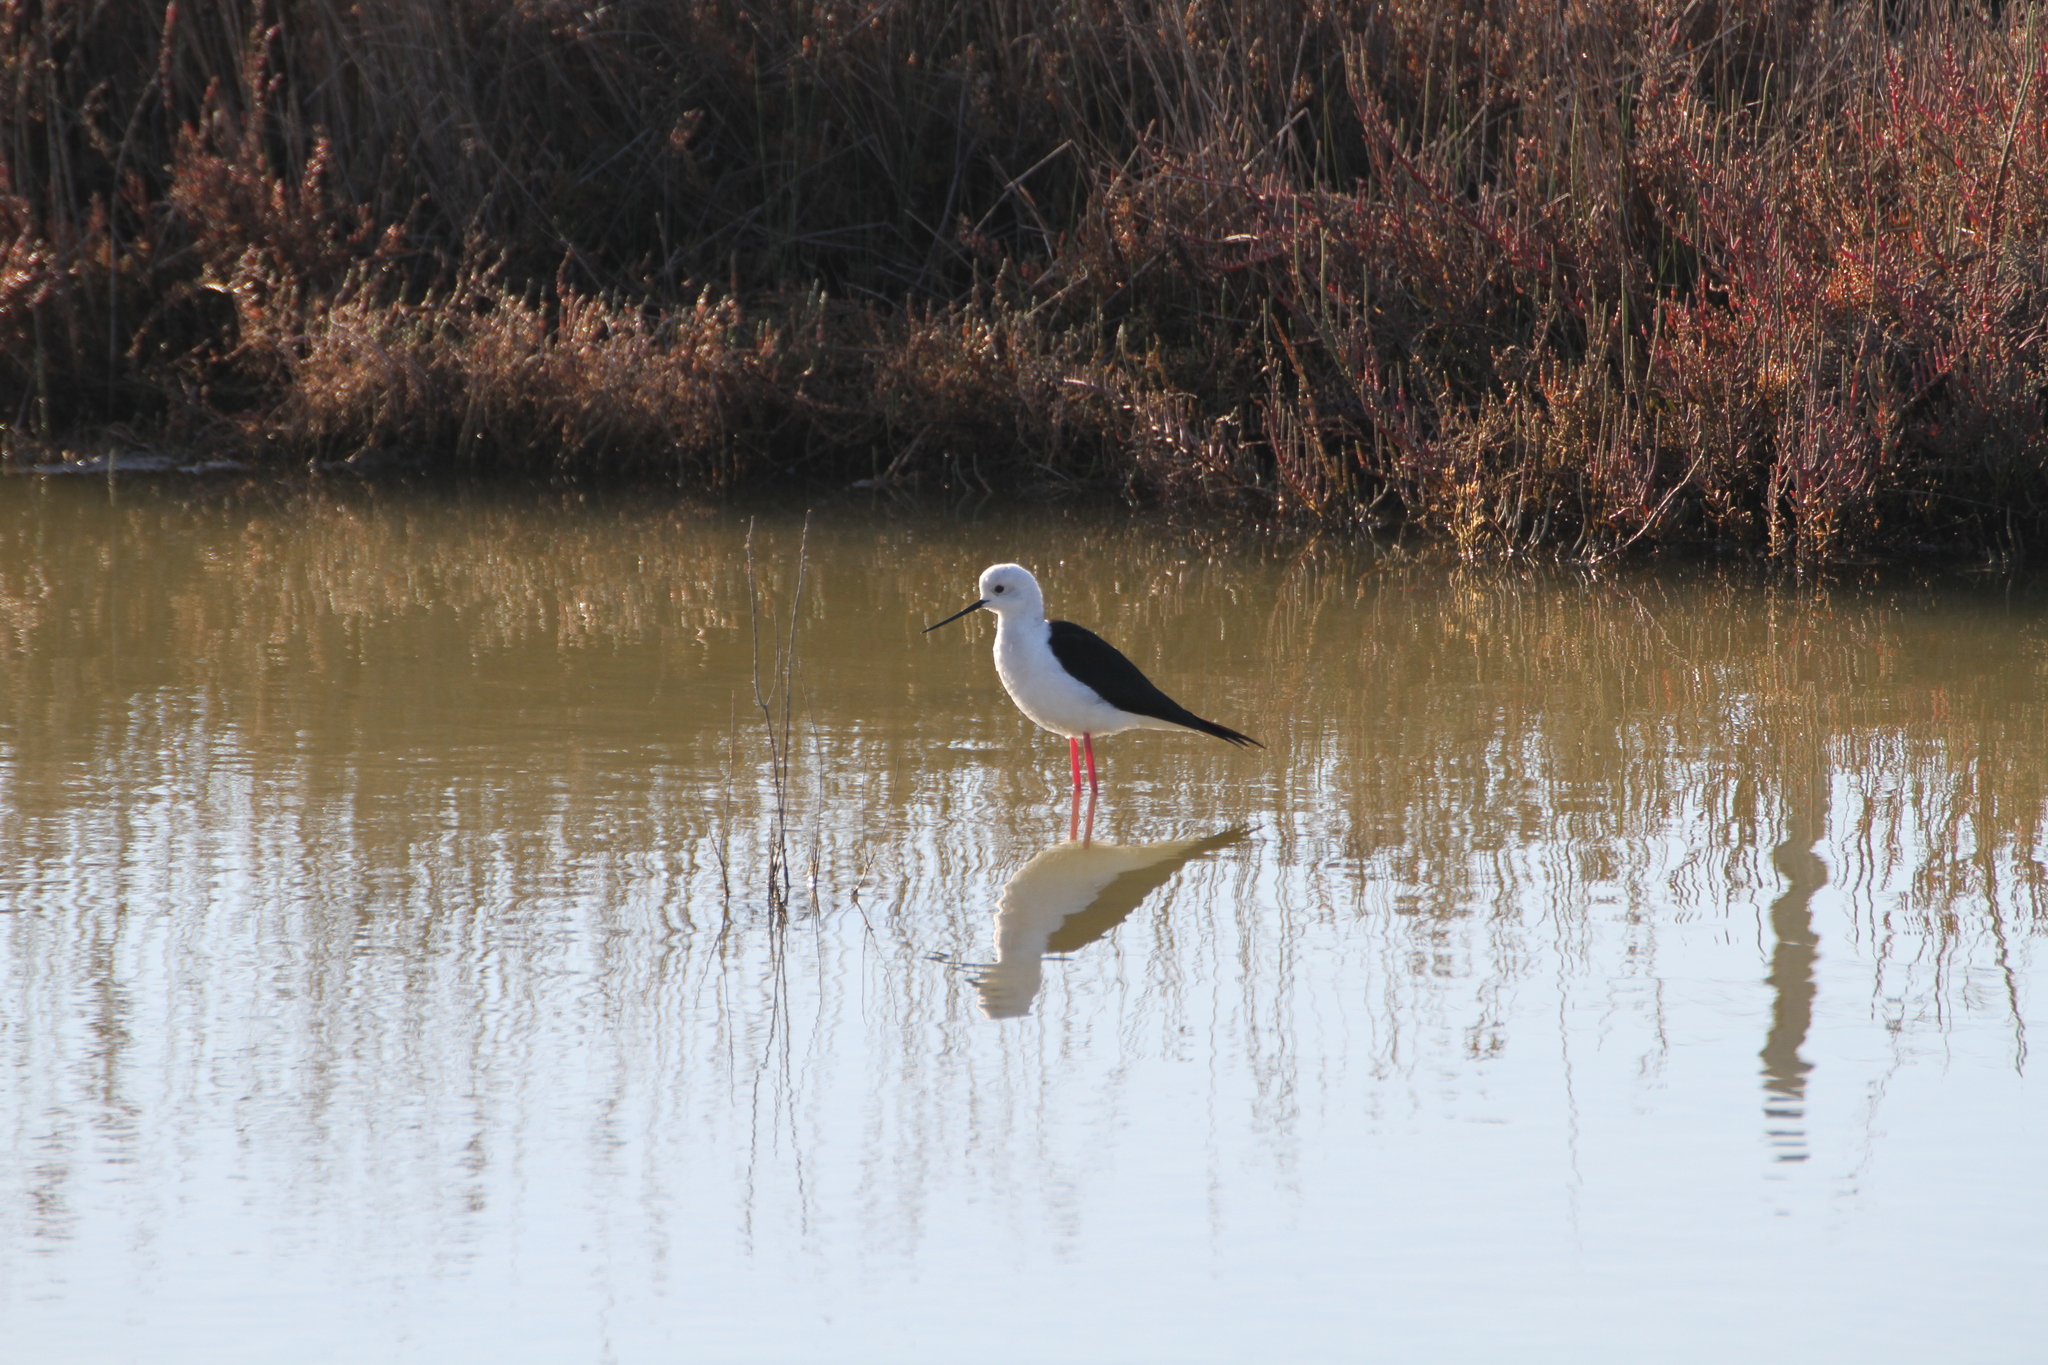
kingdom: Animalia
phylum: Chordata
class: Aves
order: Charadriiformes
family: Recurvirostridae
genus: Himantopus
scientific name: Himantopus himantopus
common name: Black-winged stilt
